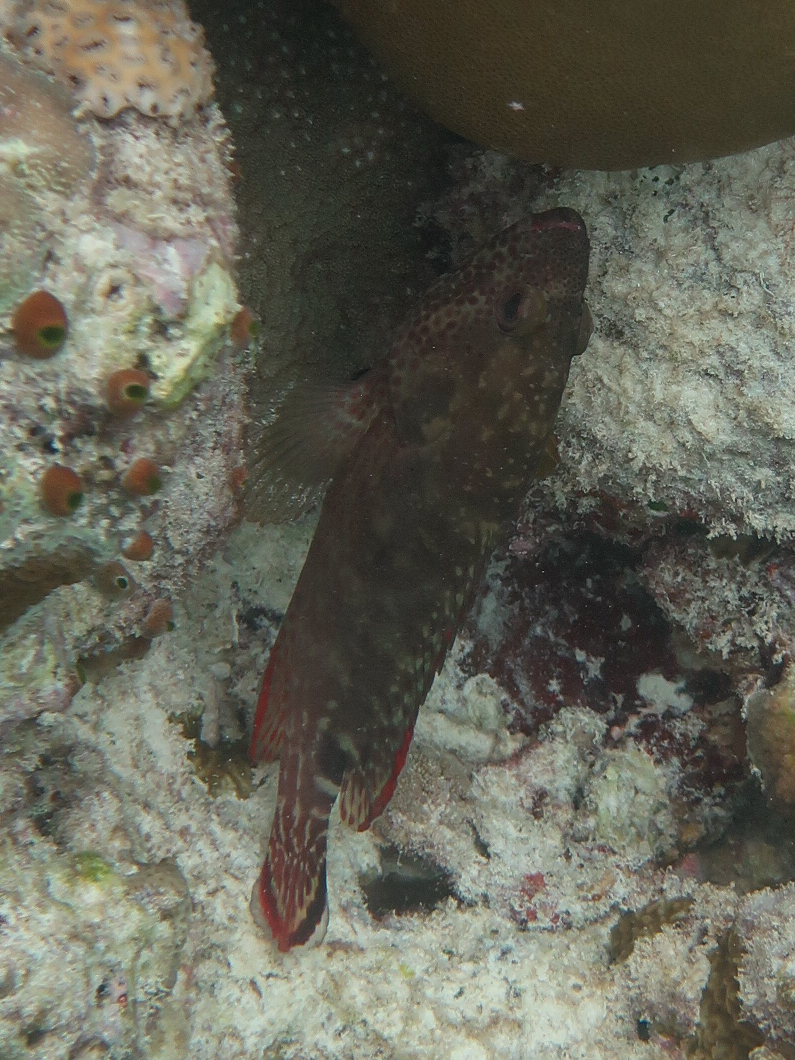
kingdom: Animalia
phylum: Chordata
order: Perciformes
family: Serranidae
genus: Cephalopholis
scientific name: Cephalopholis leopardus
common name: Leopard hind
